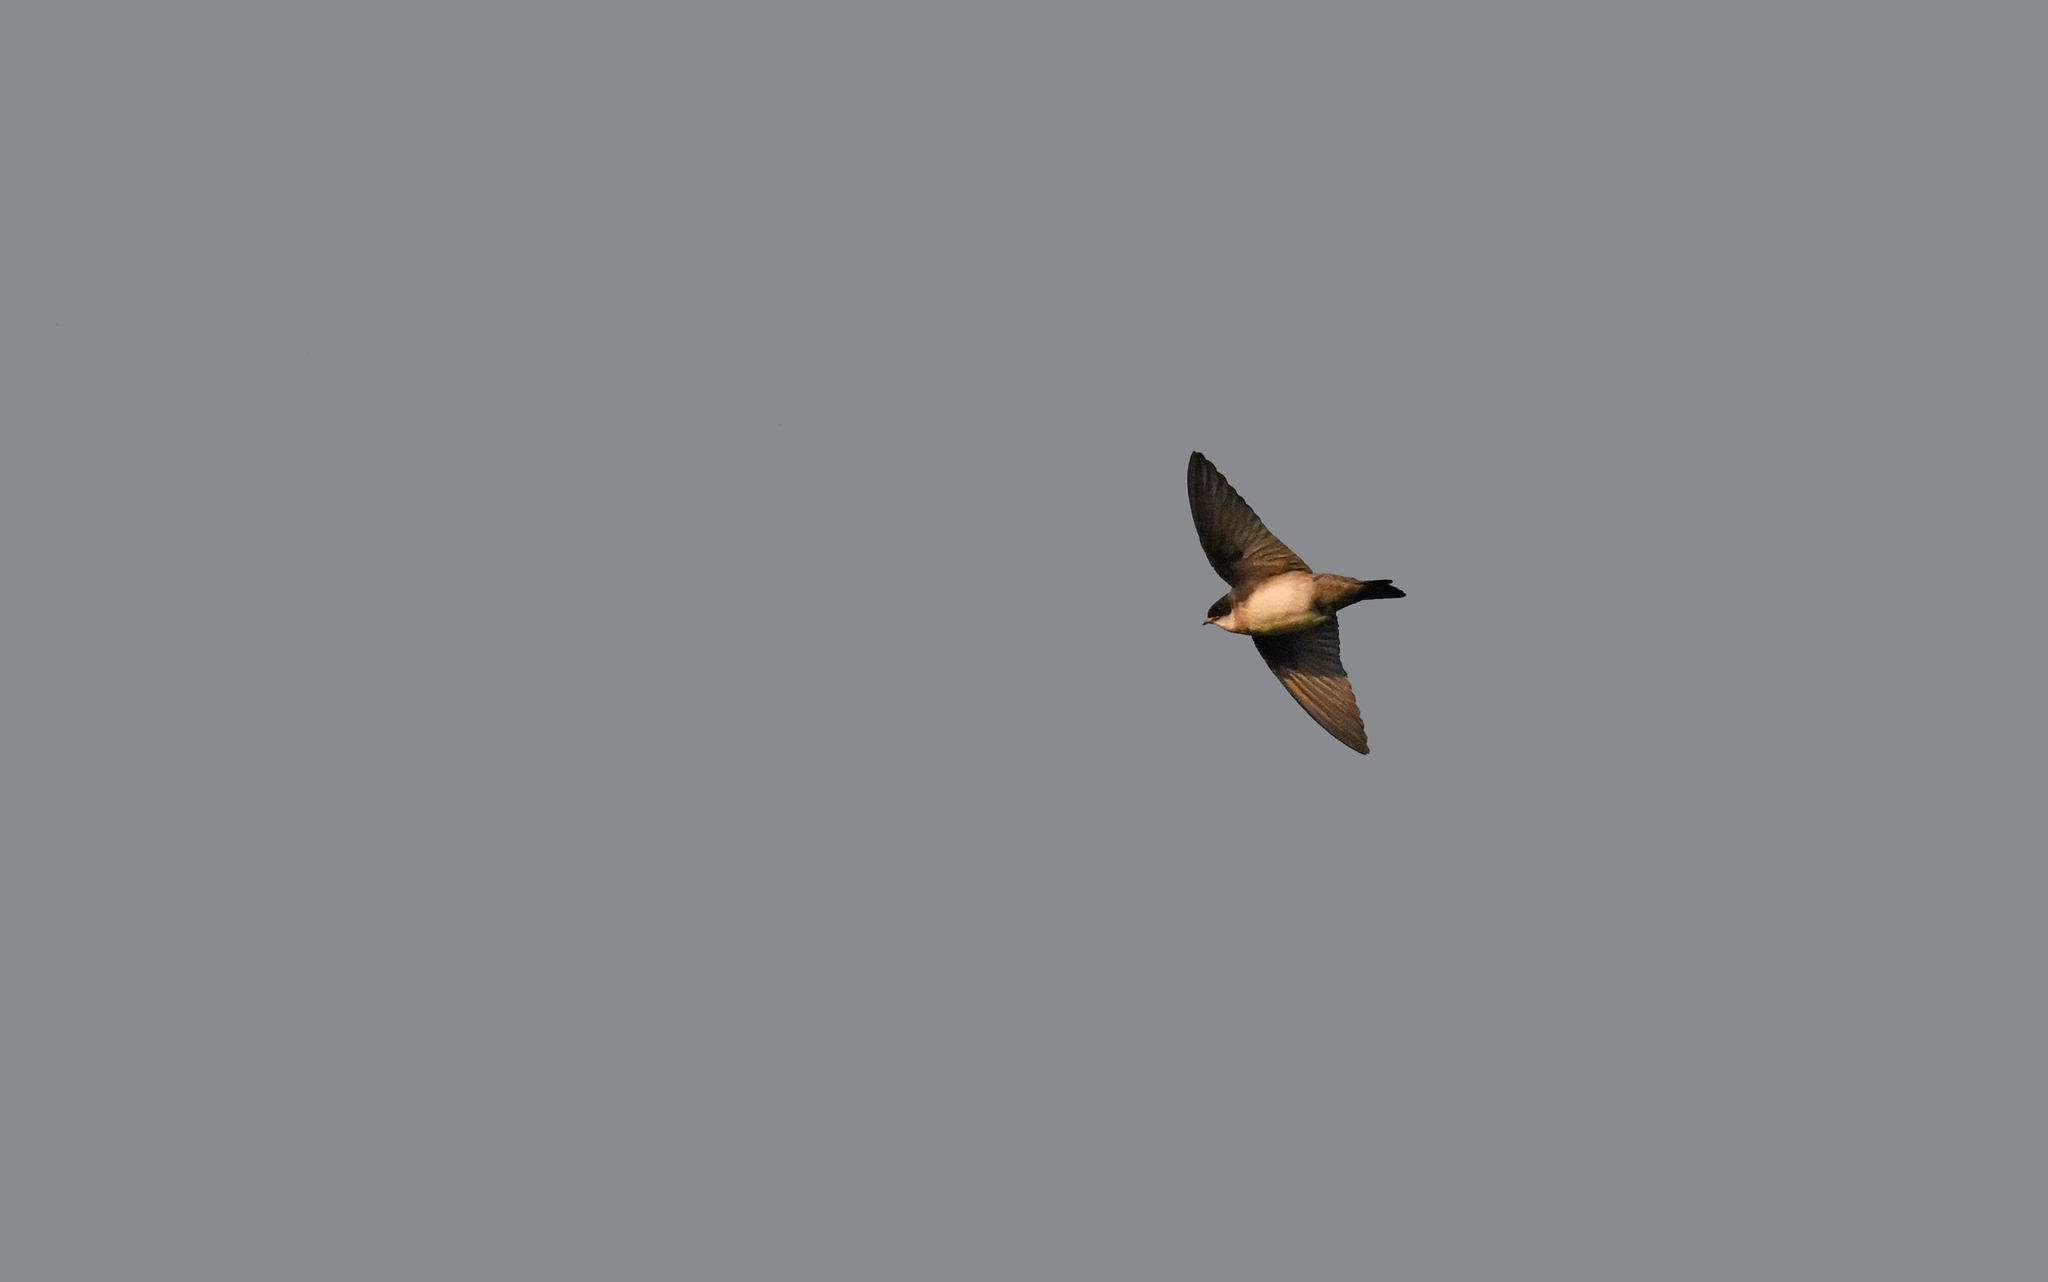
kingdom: Animalia
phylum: Chordata
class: Aves
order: Passeriformes
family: Hirundinidae
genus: Notiochelidon
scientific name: Notiochelidon cyanoleuca
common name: Blue-and-white swallow
